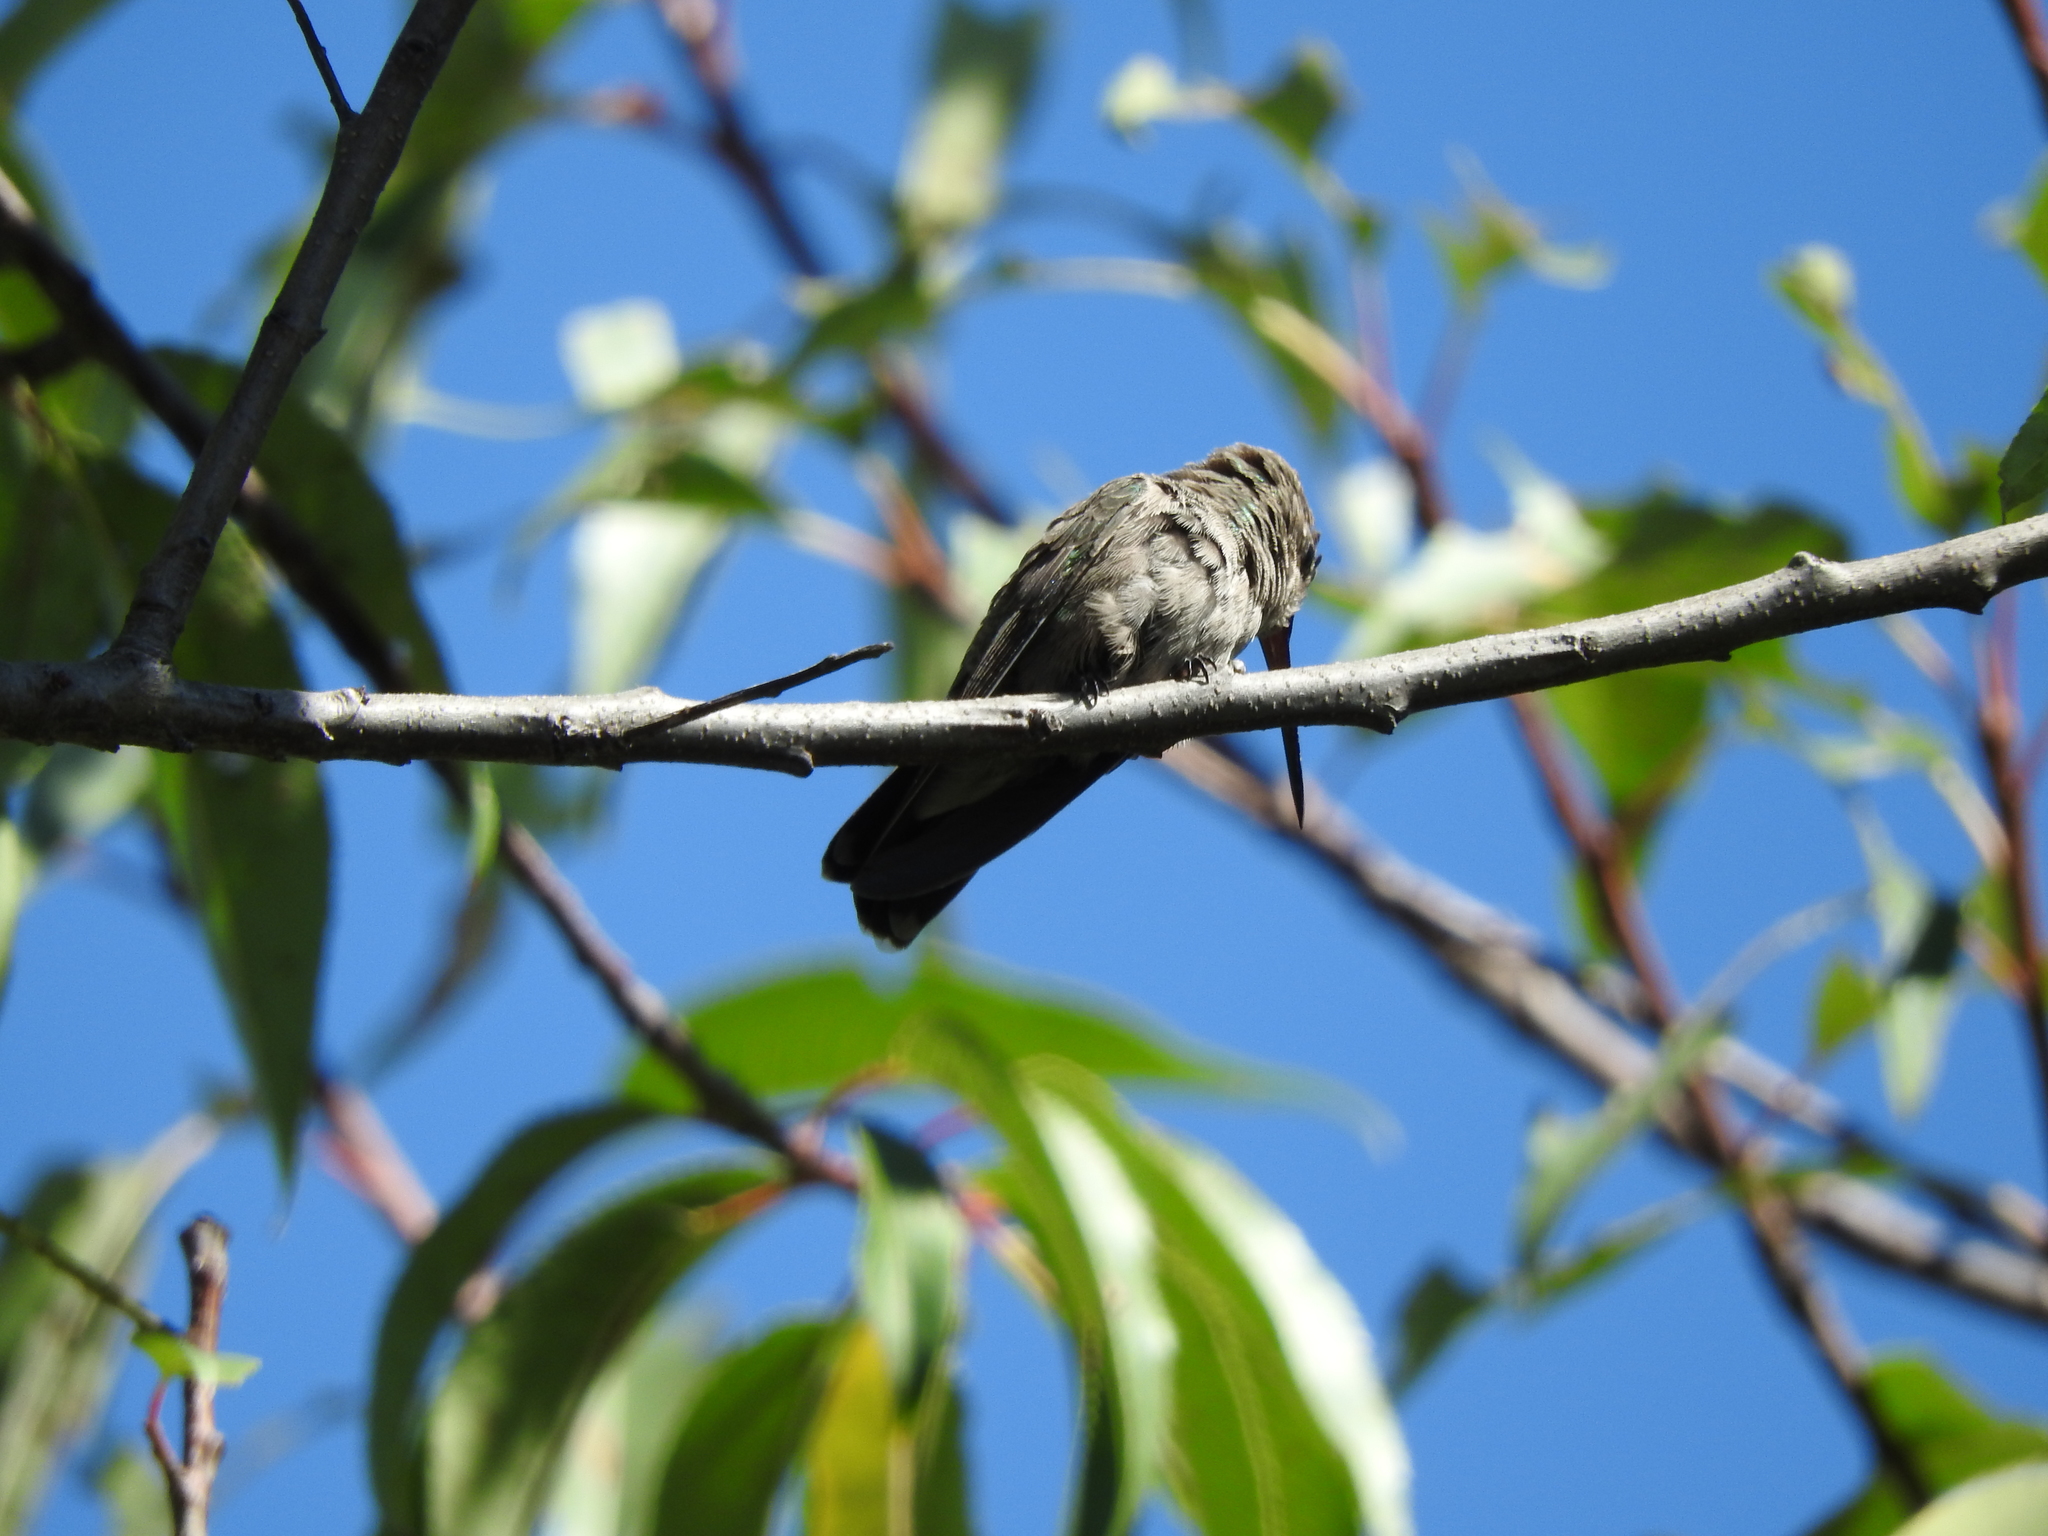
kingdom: Animalia
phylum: Chordata
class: Aves
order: Apodiformes
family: Trochilidae
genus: Cynanthus
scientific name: Cynanthus latirostris
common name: Broad-billed hummingbird
